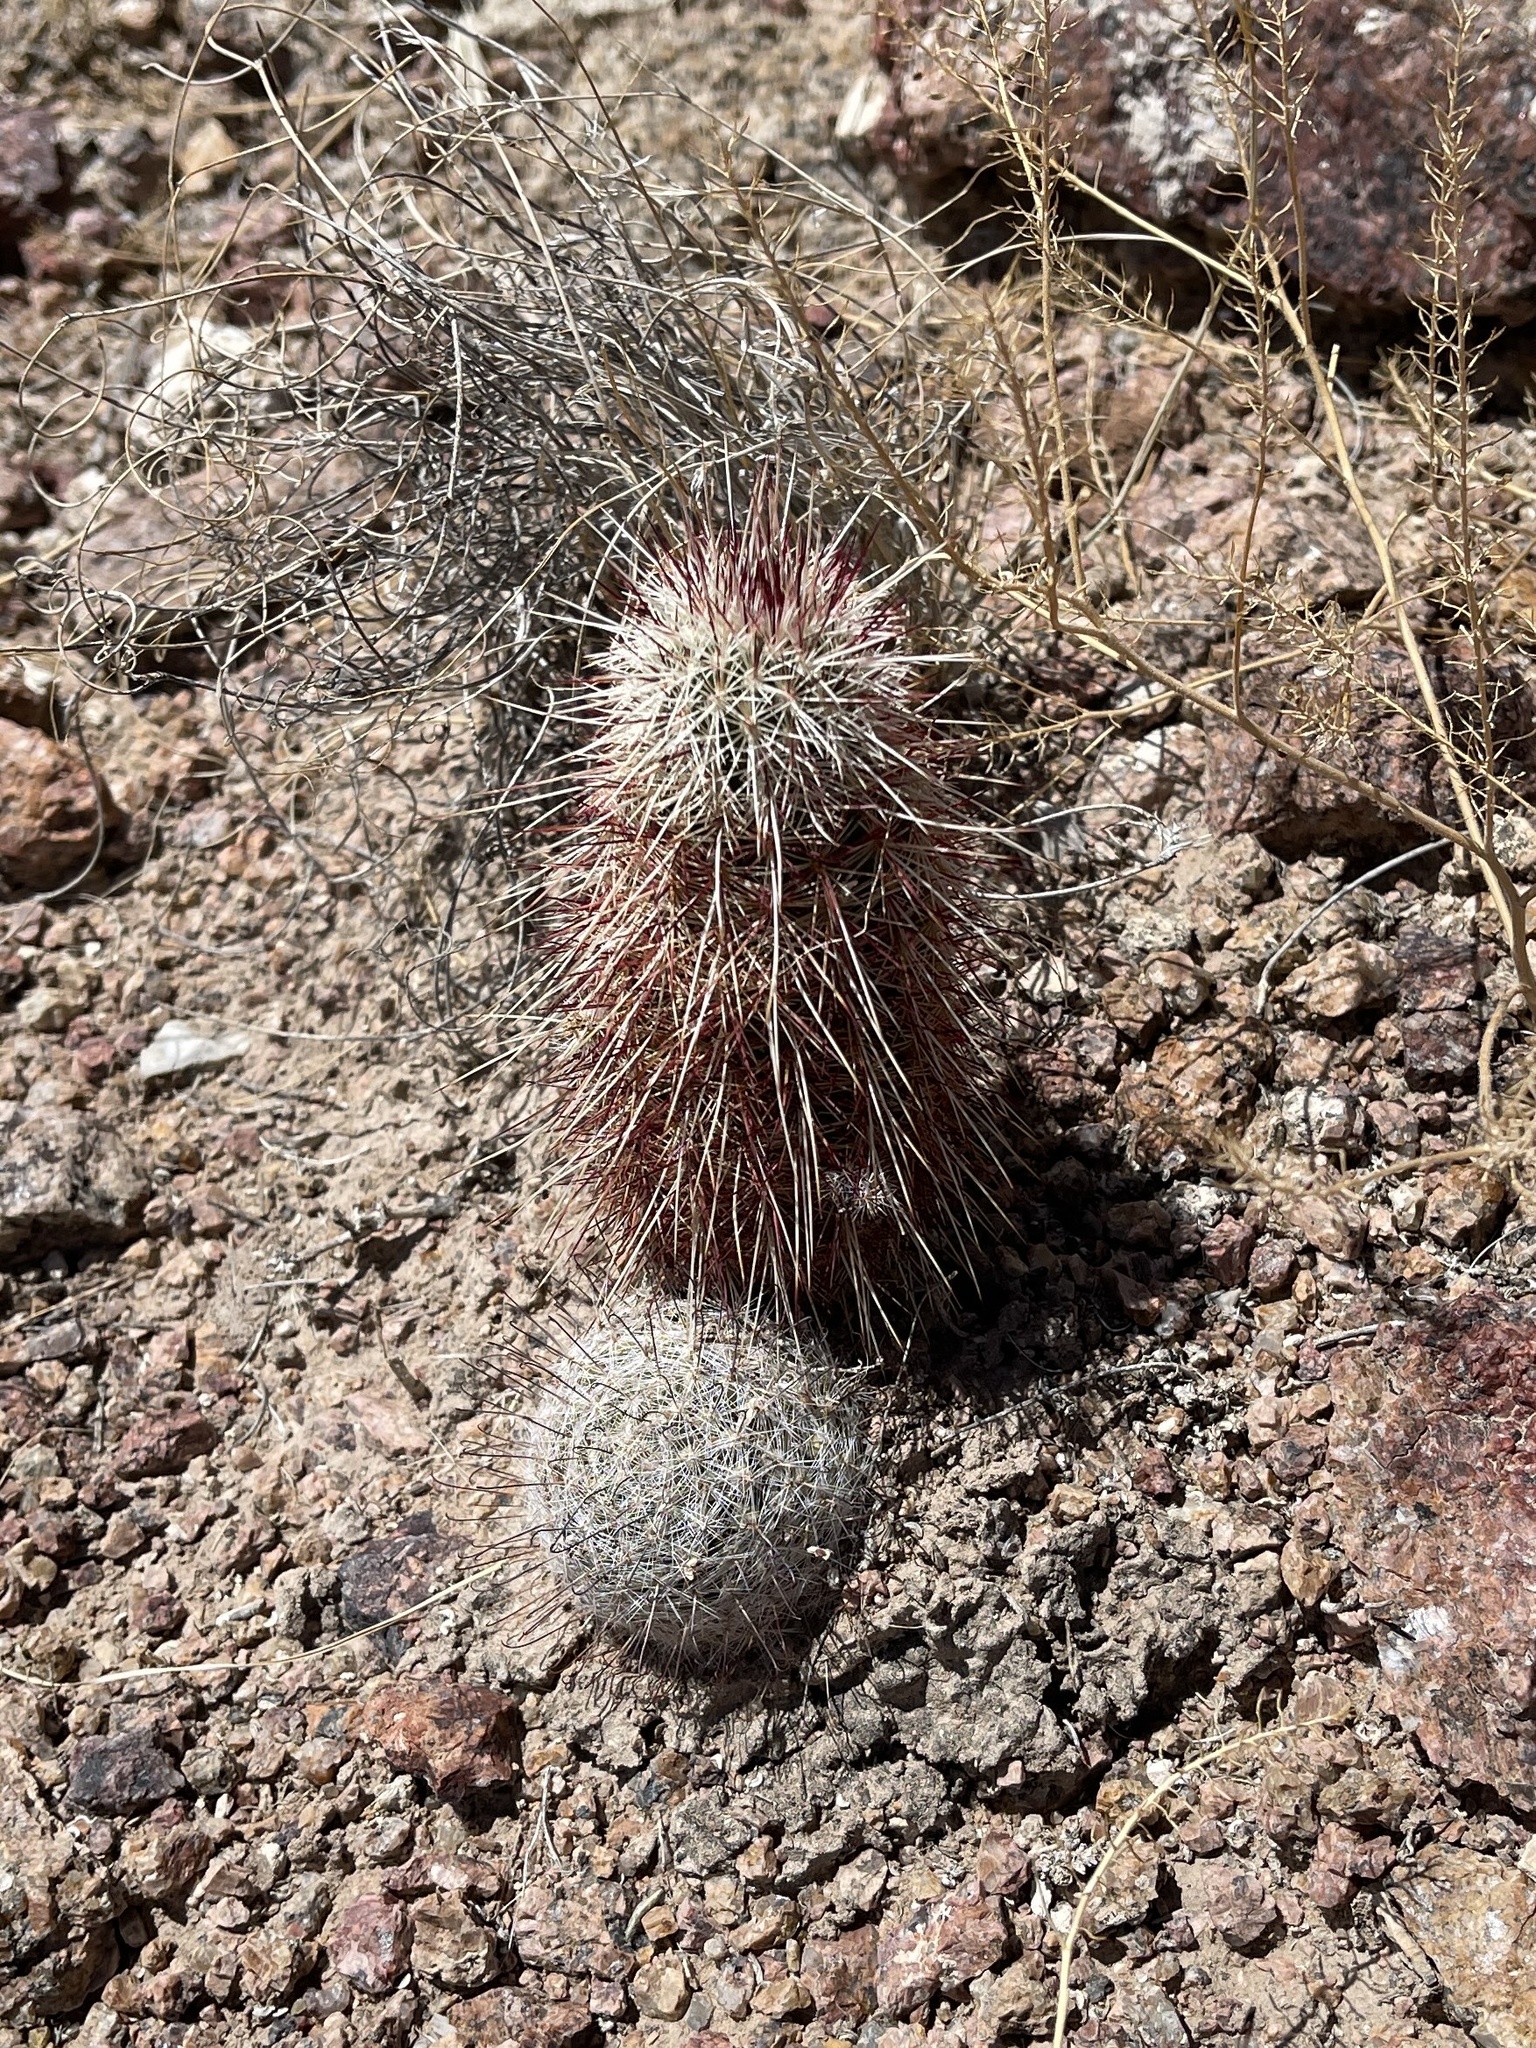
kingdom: Plantae
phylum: Tracheophyta
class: Magnoliopsida
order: Caryophyllales
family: Cactaceae
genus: Echinocereus
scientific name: Echinocereus viridiflorus
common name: Nylon hedgehog cactus
